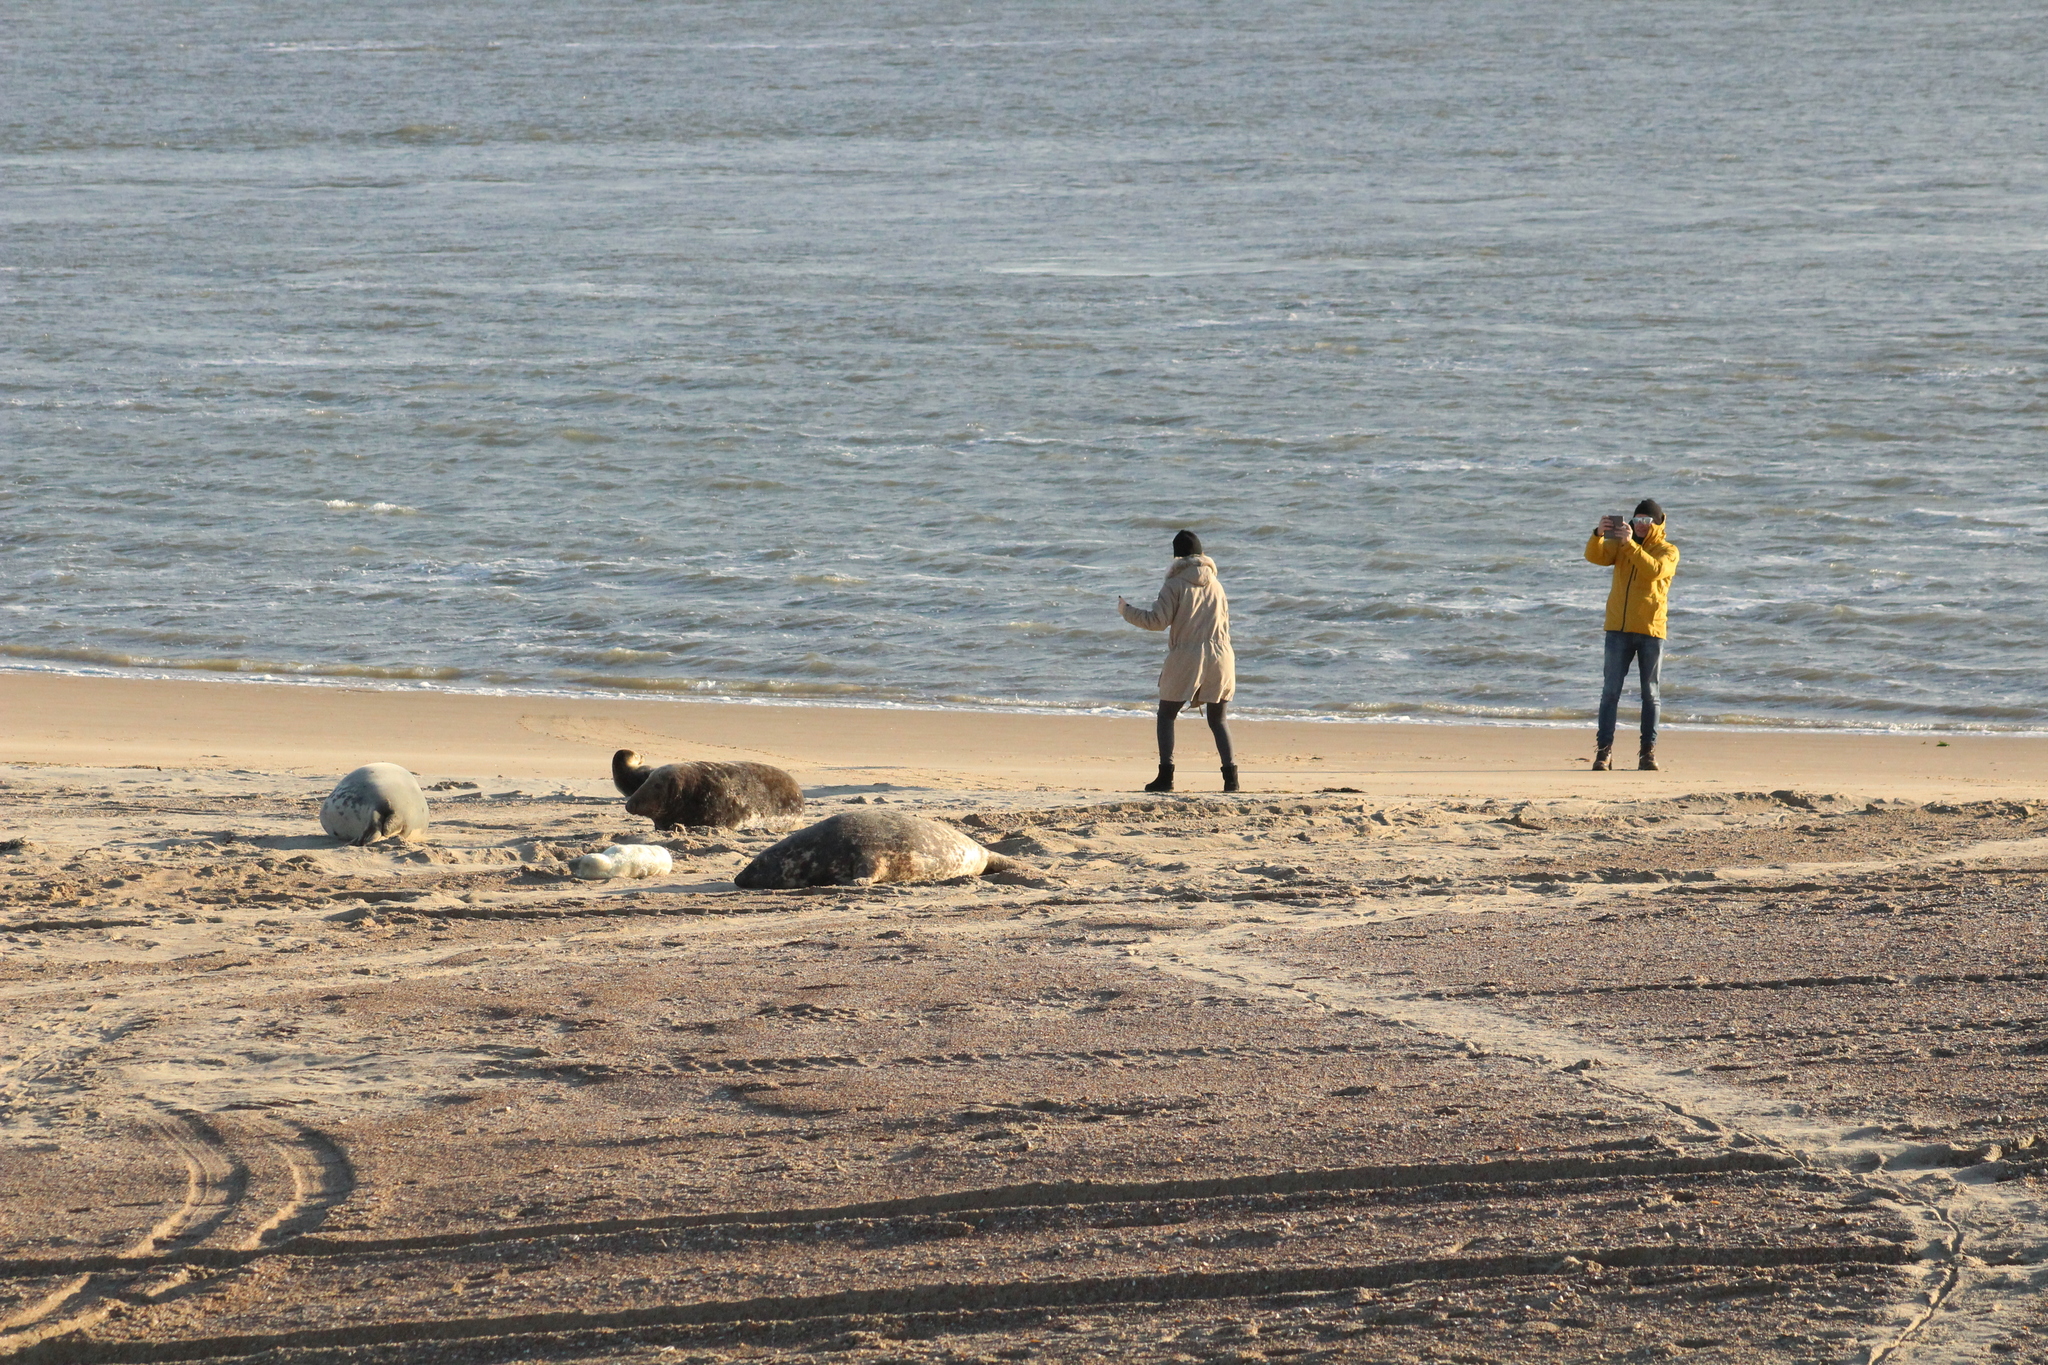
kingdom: Animalia
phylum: Chordata
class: Mammalia
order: Carnivora
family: Phocidae
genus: Halichoerus
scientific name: Halichoerus grypus
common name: Grey seal
